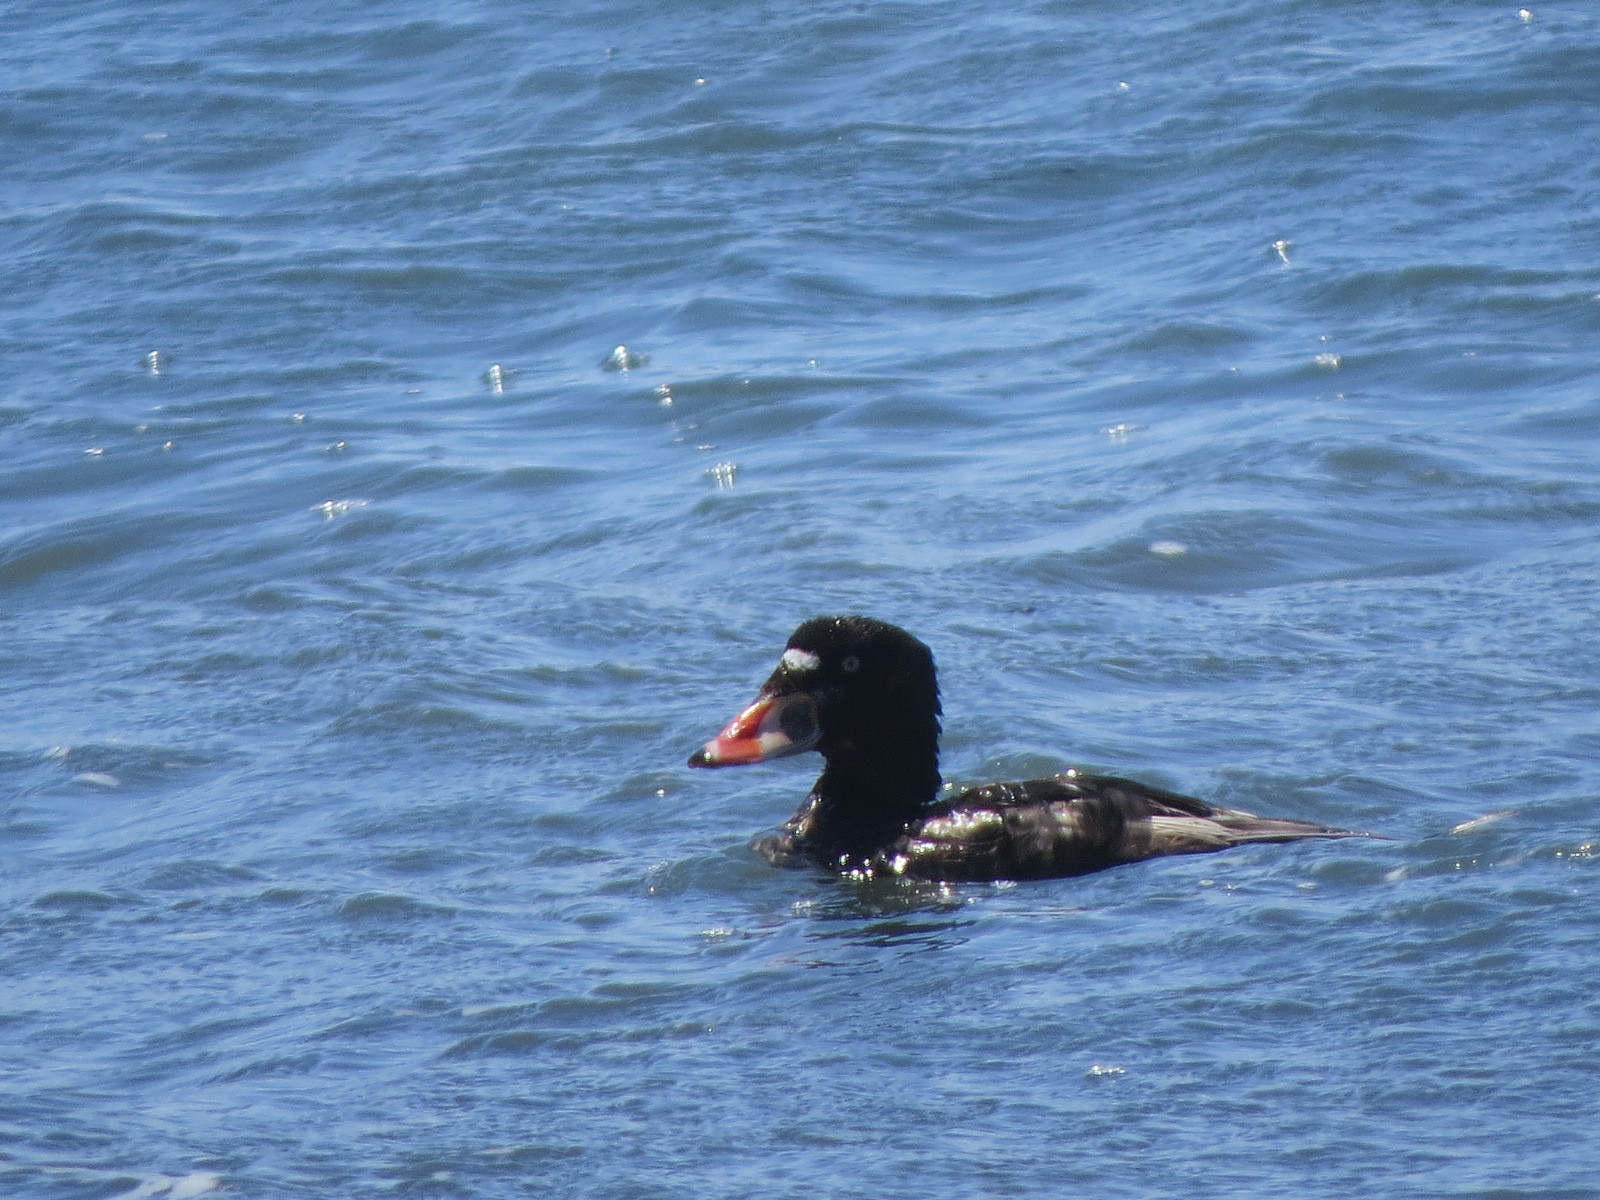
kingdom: Animalia
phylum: Chordata
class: Aves
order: Anseriformes
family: Anatidae
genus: Melanitta
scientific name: Melanitta perspicillata
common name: Surf scoter
